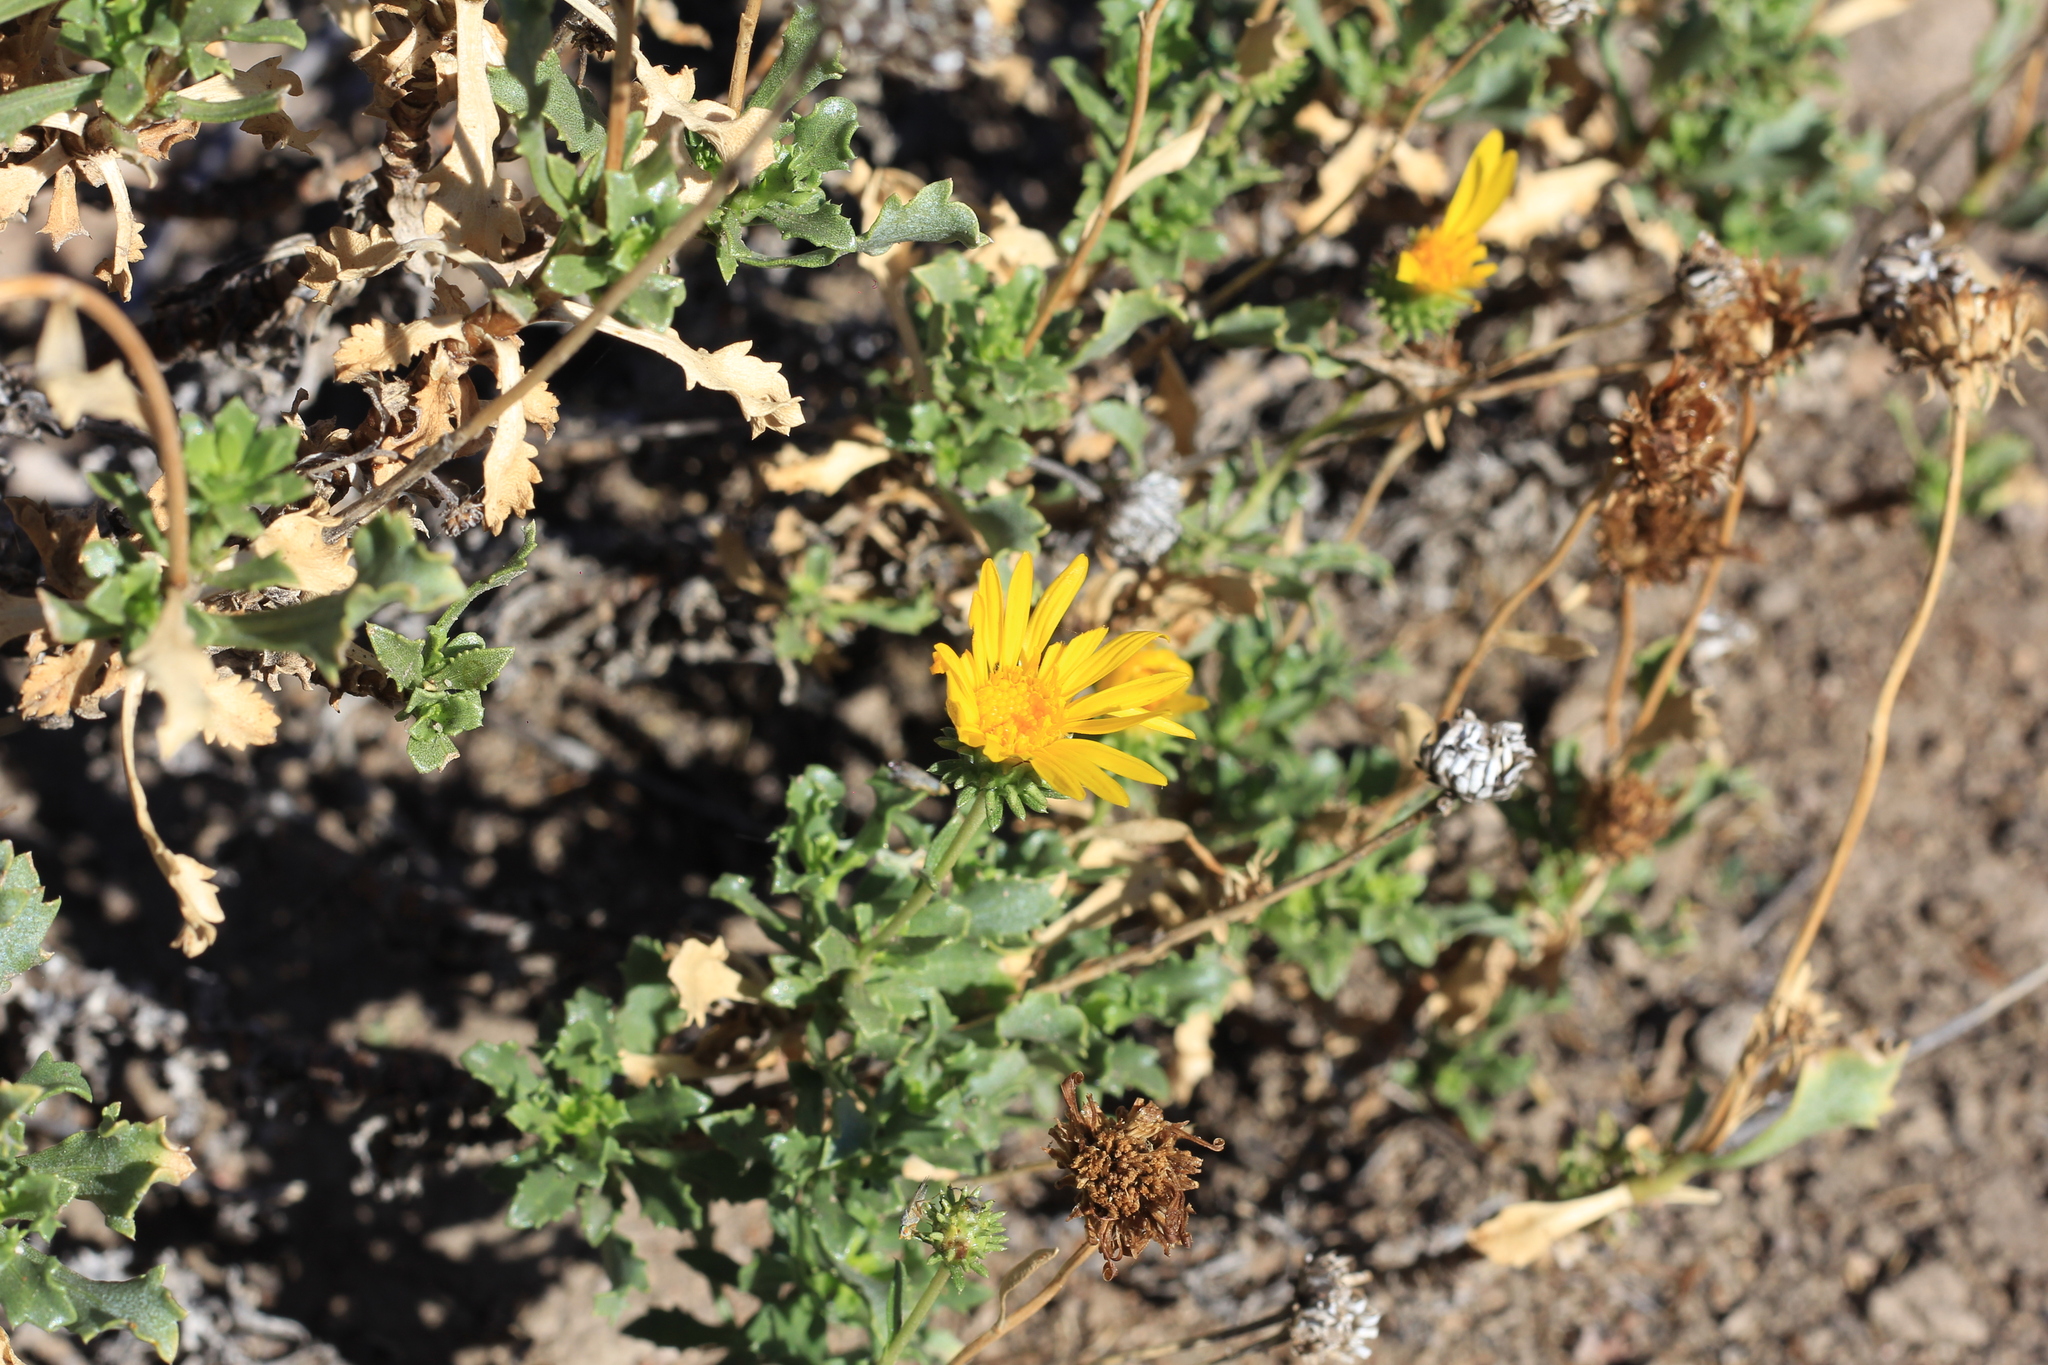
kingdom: Plantae
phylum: Tracheophyta
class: Magnoliopsida
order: Asterales
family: Asteraceae
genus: Grindelia
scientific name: Grindelia chiloensis
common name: Shrubby gumweed
